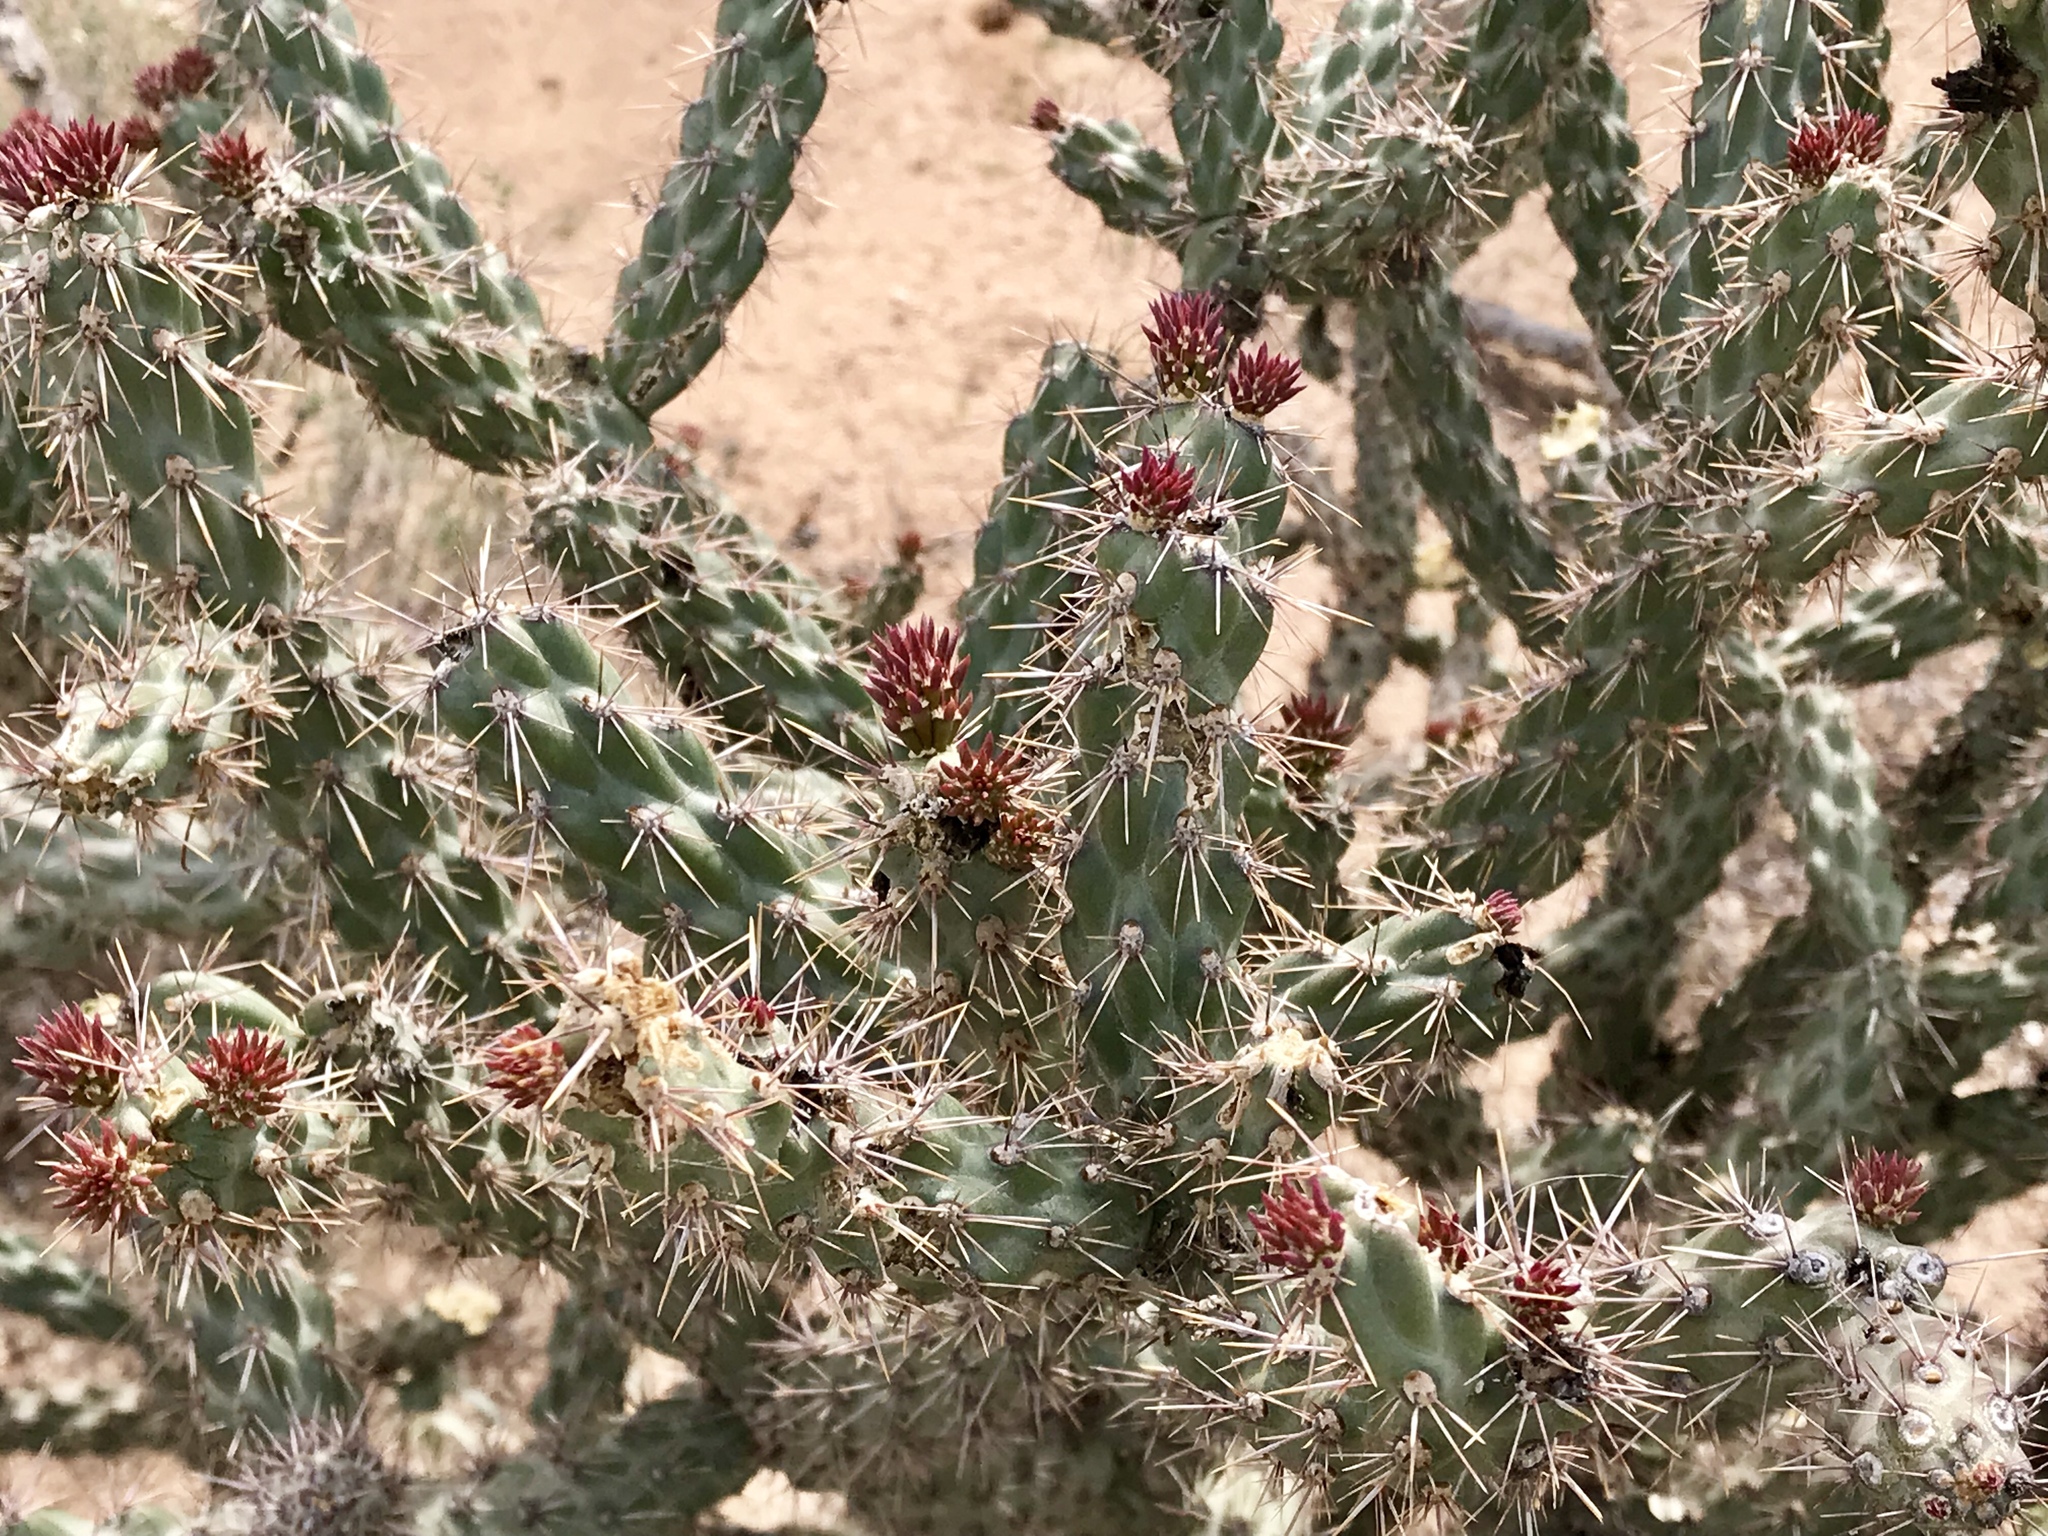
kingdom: Plantae
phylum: Tracheophyta
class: Magnoliopsida
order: Caryophyllales
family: Cactaceae
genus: Cylindropuntia
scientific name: Cylindropuntia acanthocarpa
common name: Buckhorn cholla
